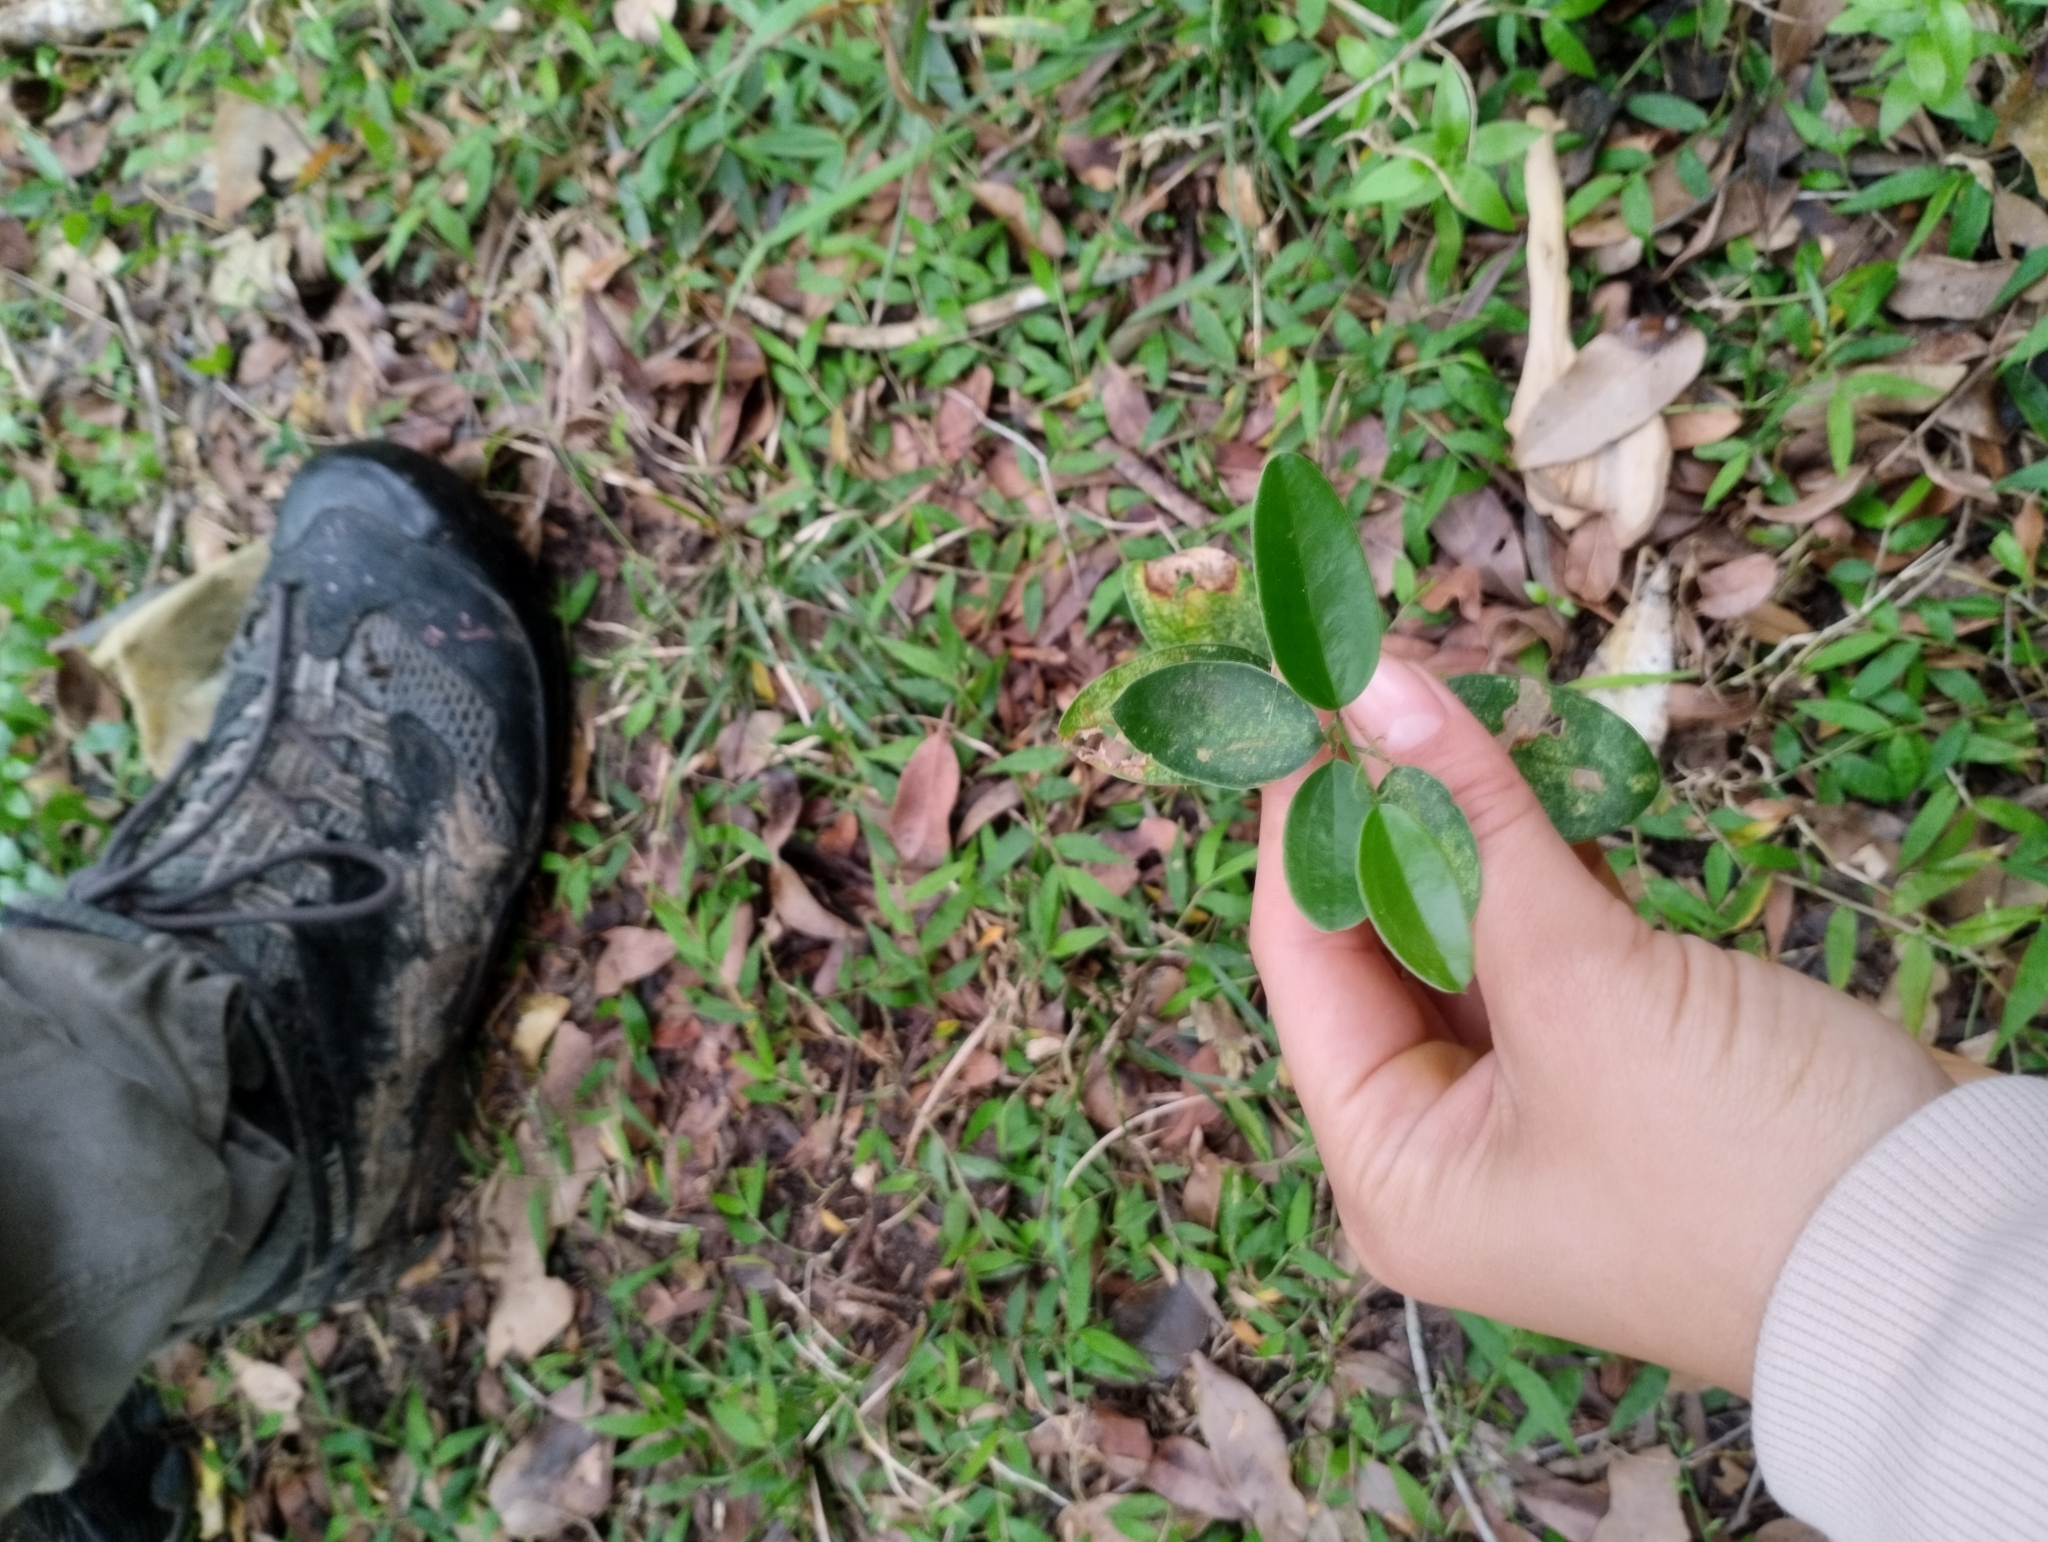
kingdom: Plantae
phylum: Tracheophyta
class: Liliopsida
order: Liliales
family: Smilacaceae
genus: Smilax
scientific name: Smilax campestris
